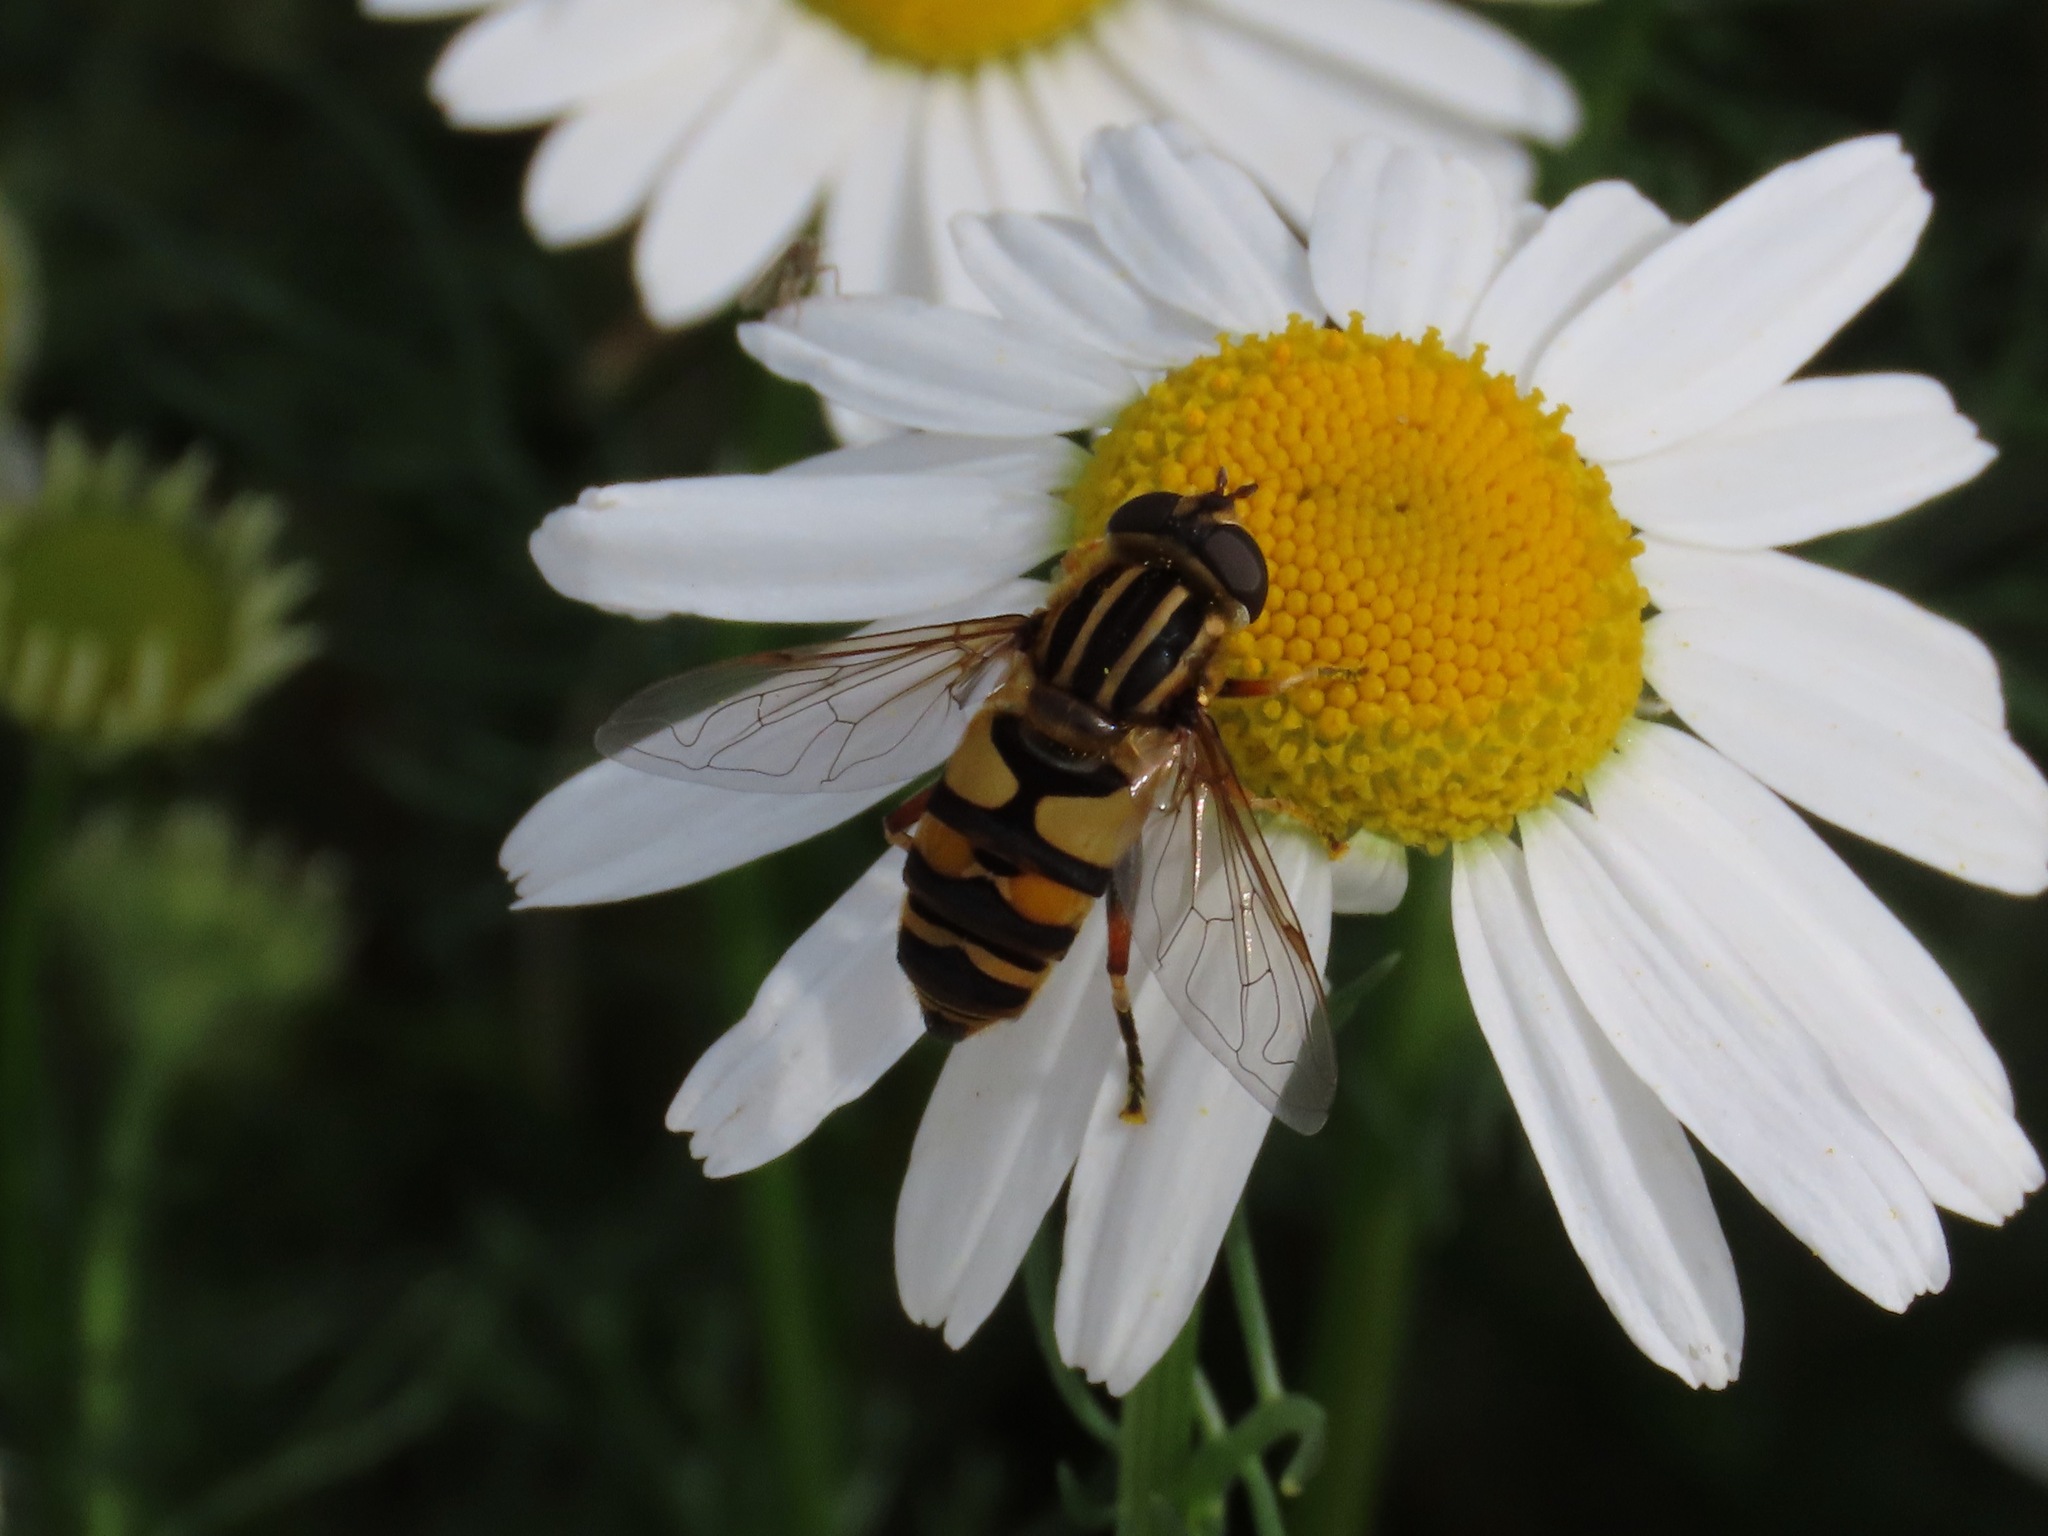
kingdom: Animalia
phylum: Arthropoda
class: Insecta
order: Diptera
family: Syrphidae
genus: Helophilus
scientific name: Helophilus fasciatus
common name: Narrow-headed marsh fly
